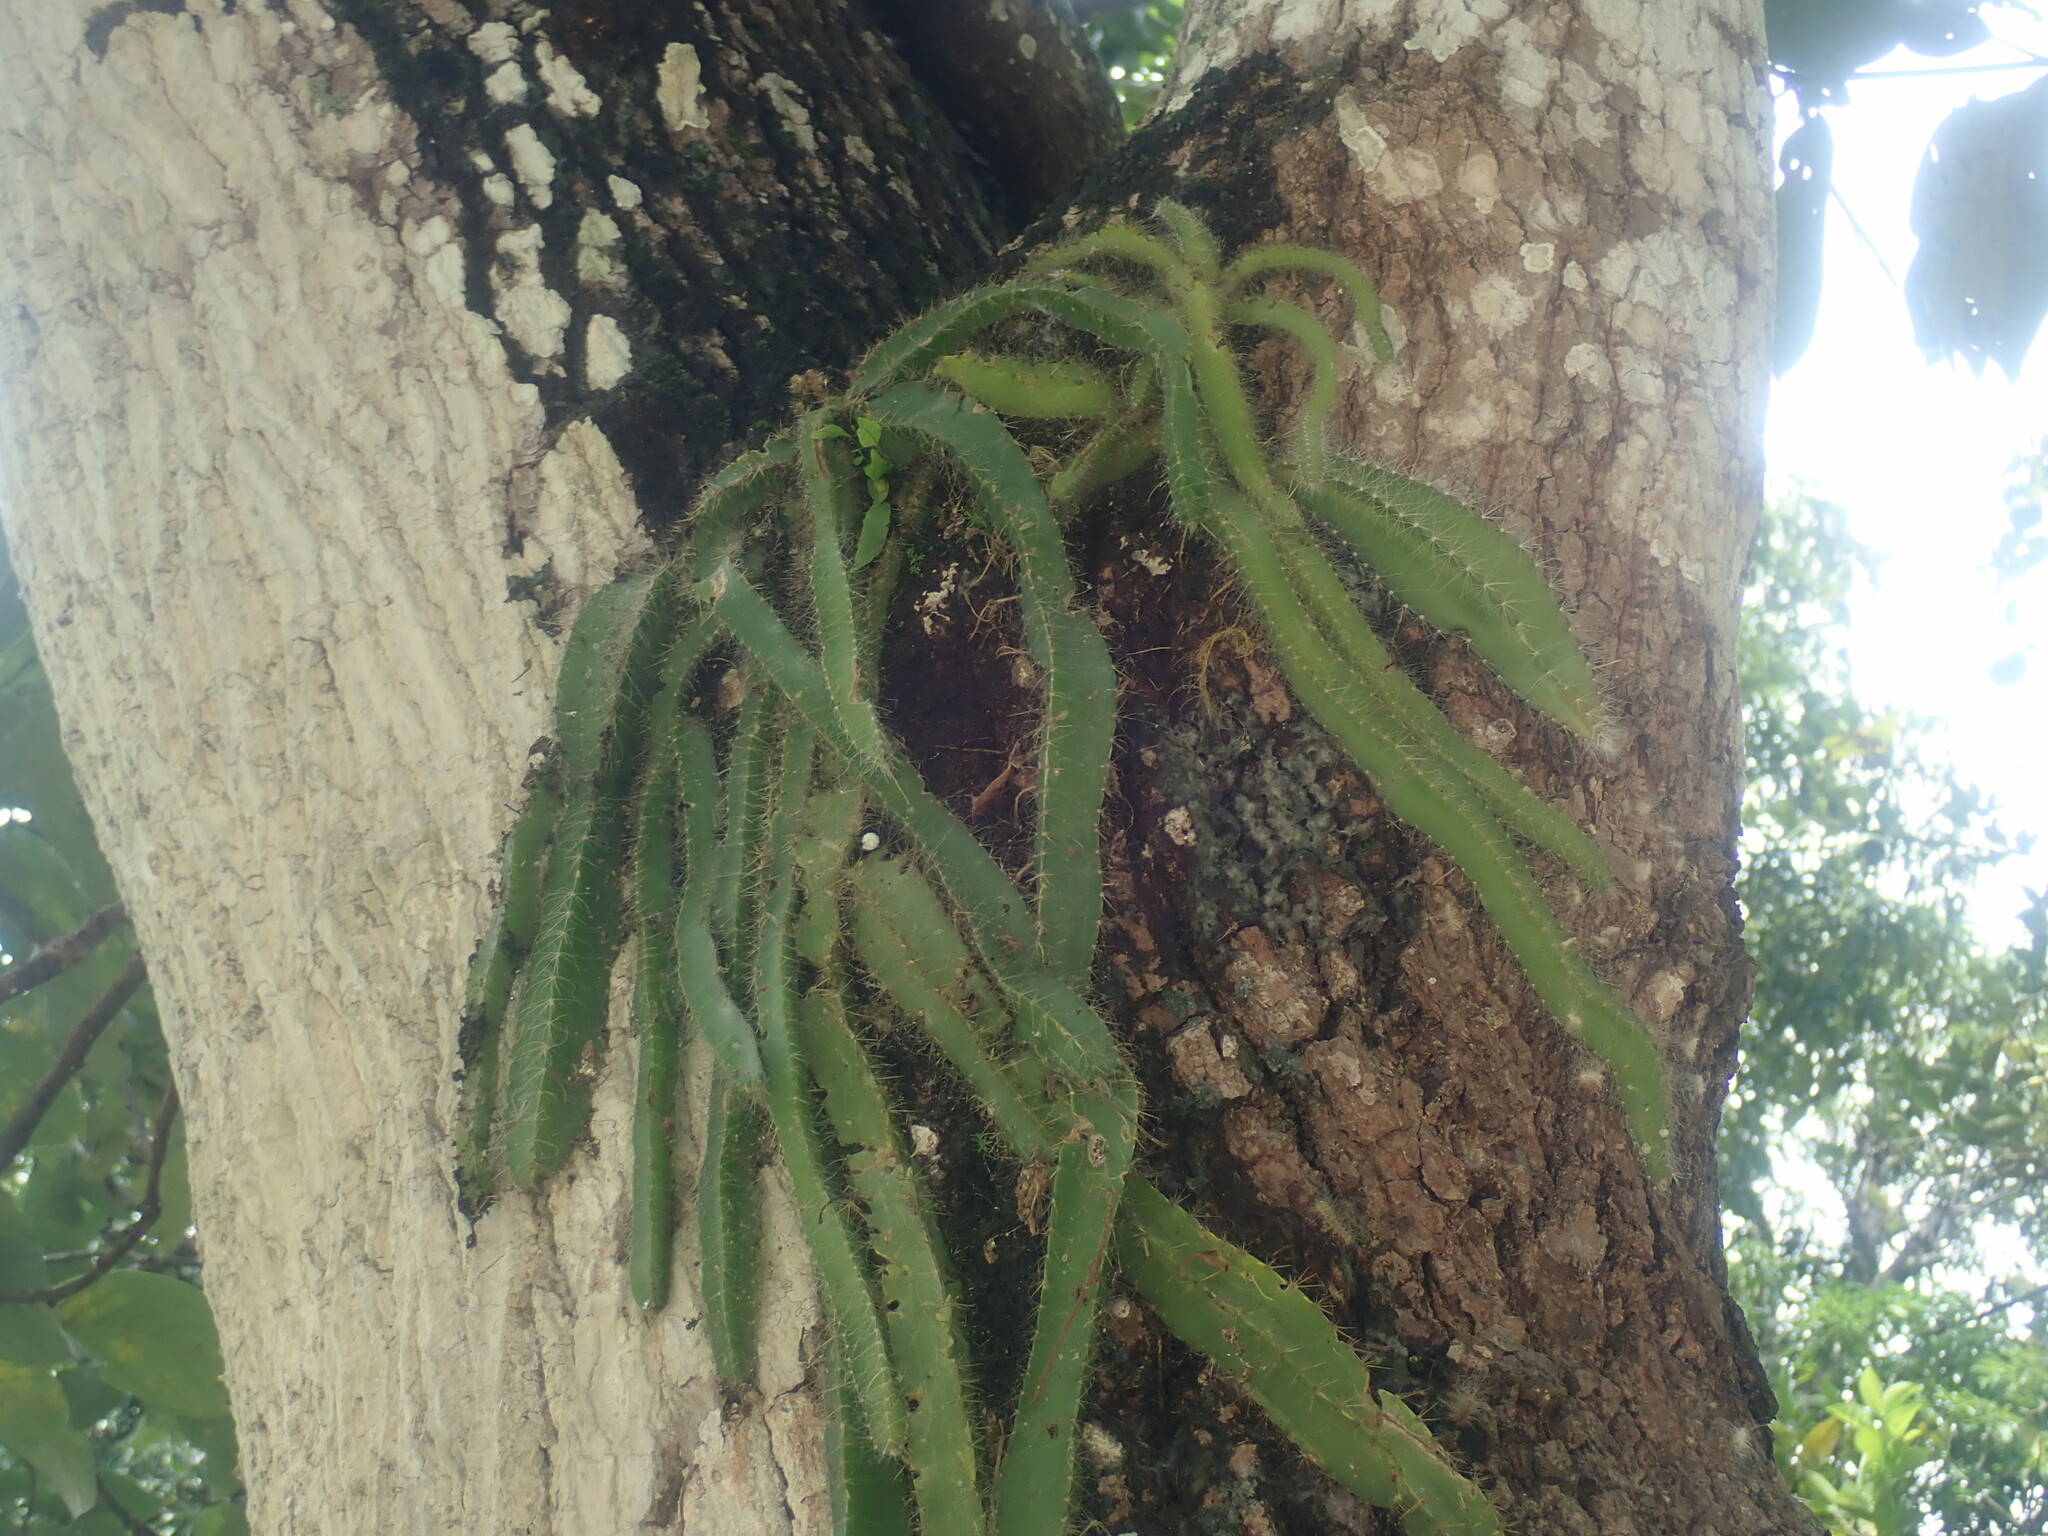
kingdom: Plantae
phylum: Tracheophyta
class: Magnoliopsida
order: Caryophyllales
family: Cactaceae
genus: Deamia
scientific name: Deamia testudo
